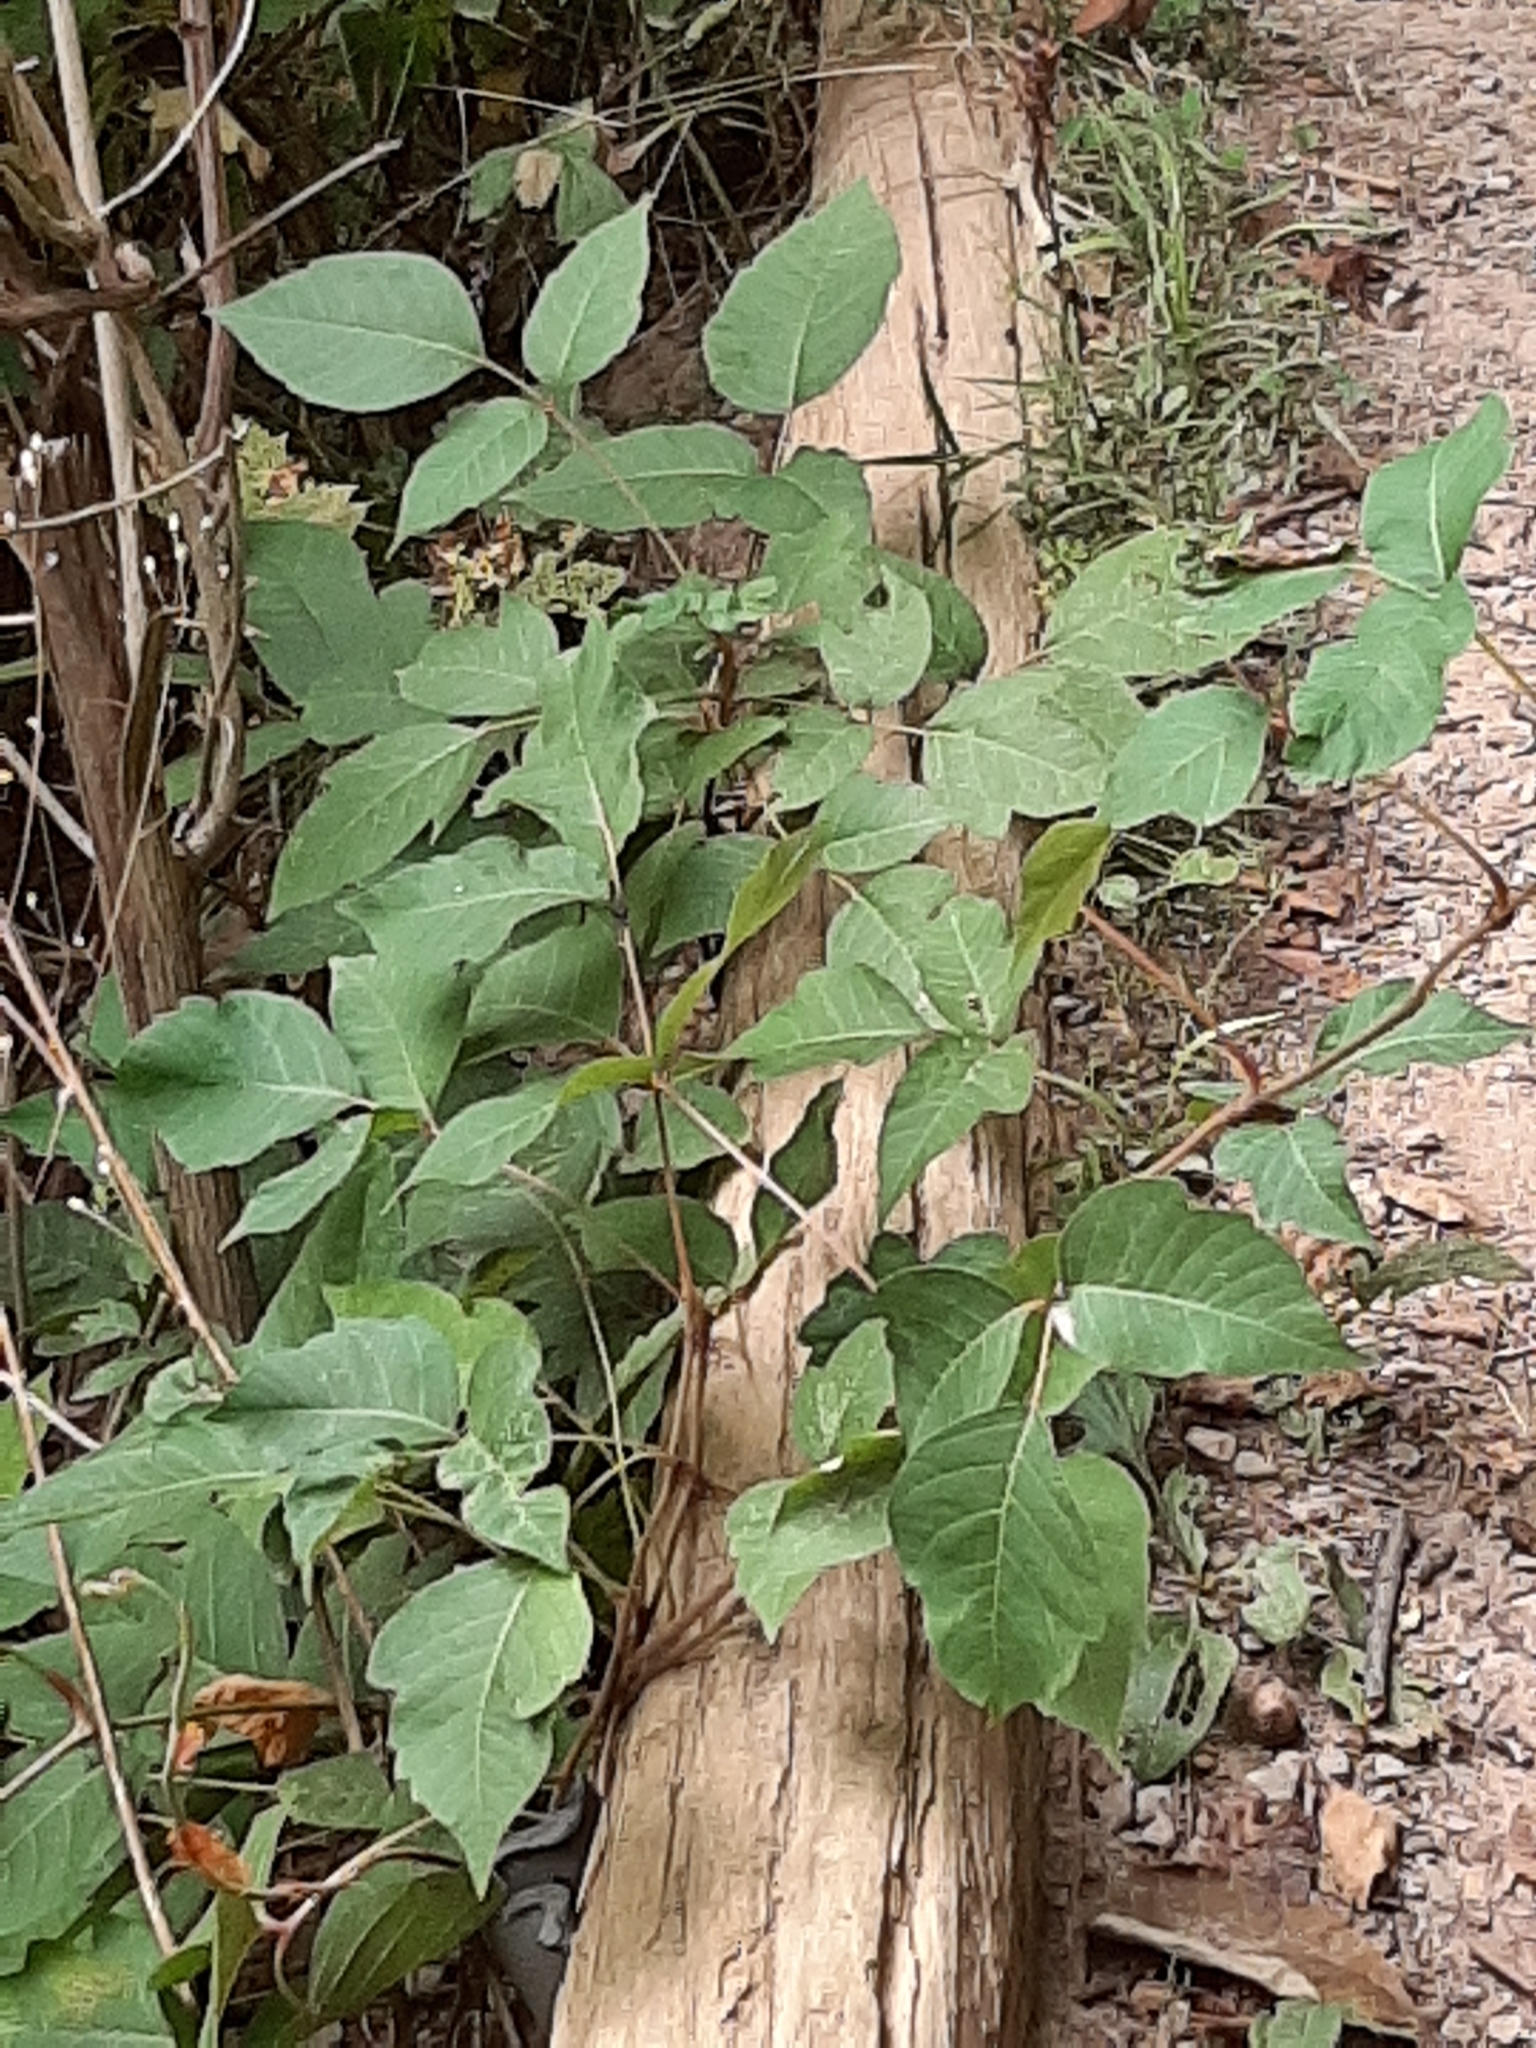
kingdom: Plantae
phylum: Tracheophyta
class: Magnoliopsida
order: Sapindales
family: Anacardiaceae
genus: Toxicodendron
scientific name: Toxicodendron radicans
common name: Poison ivy
